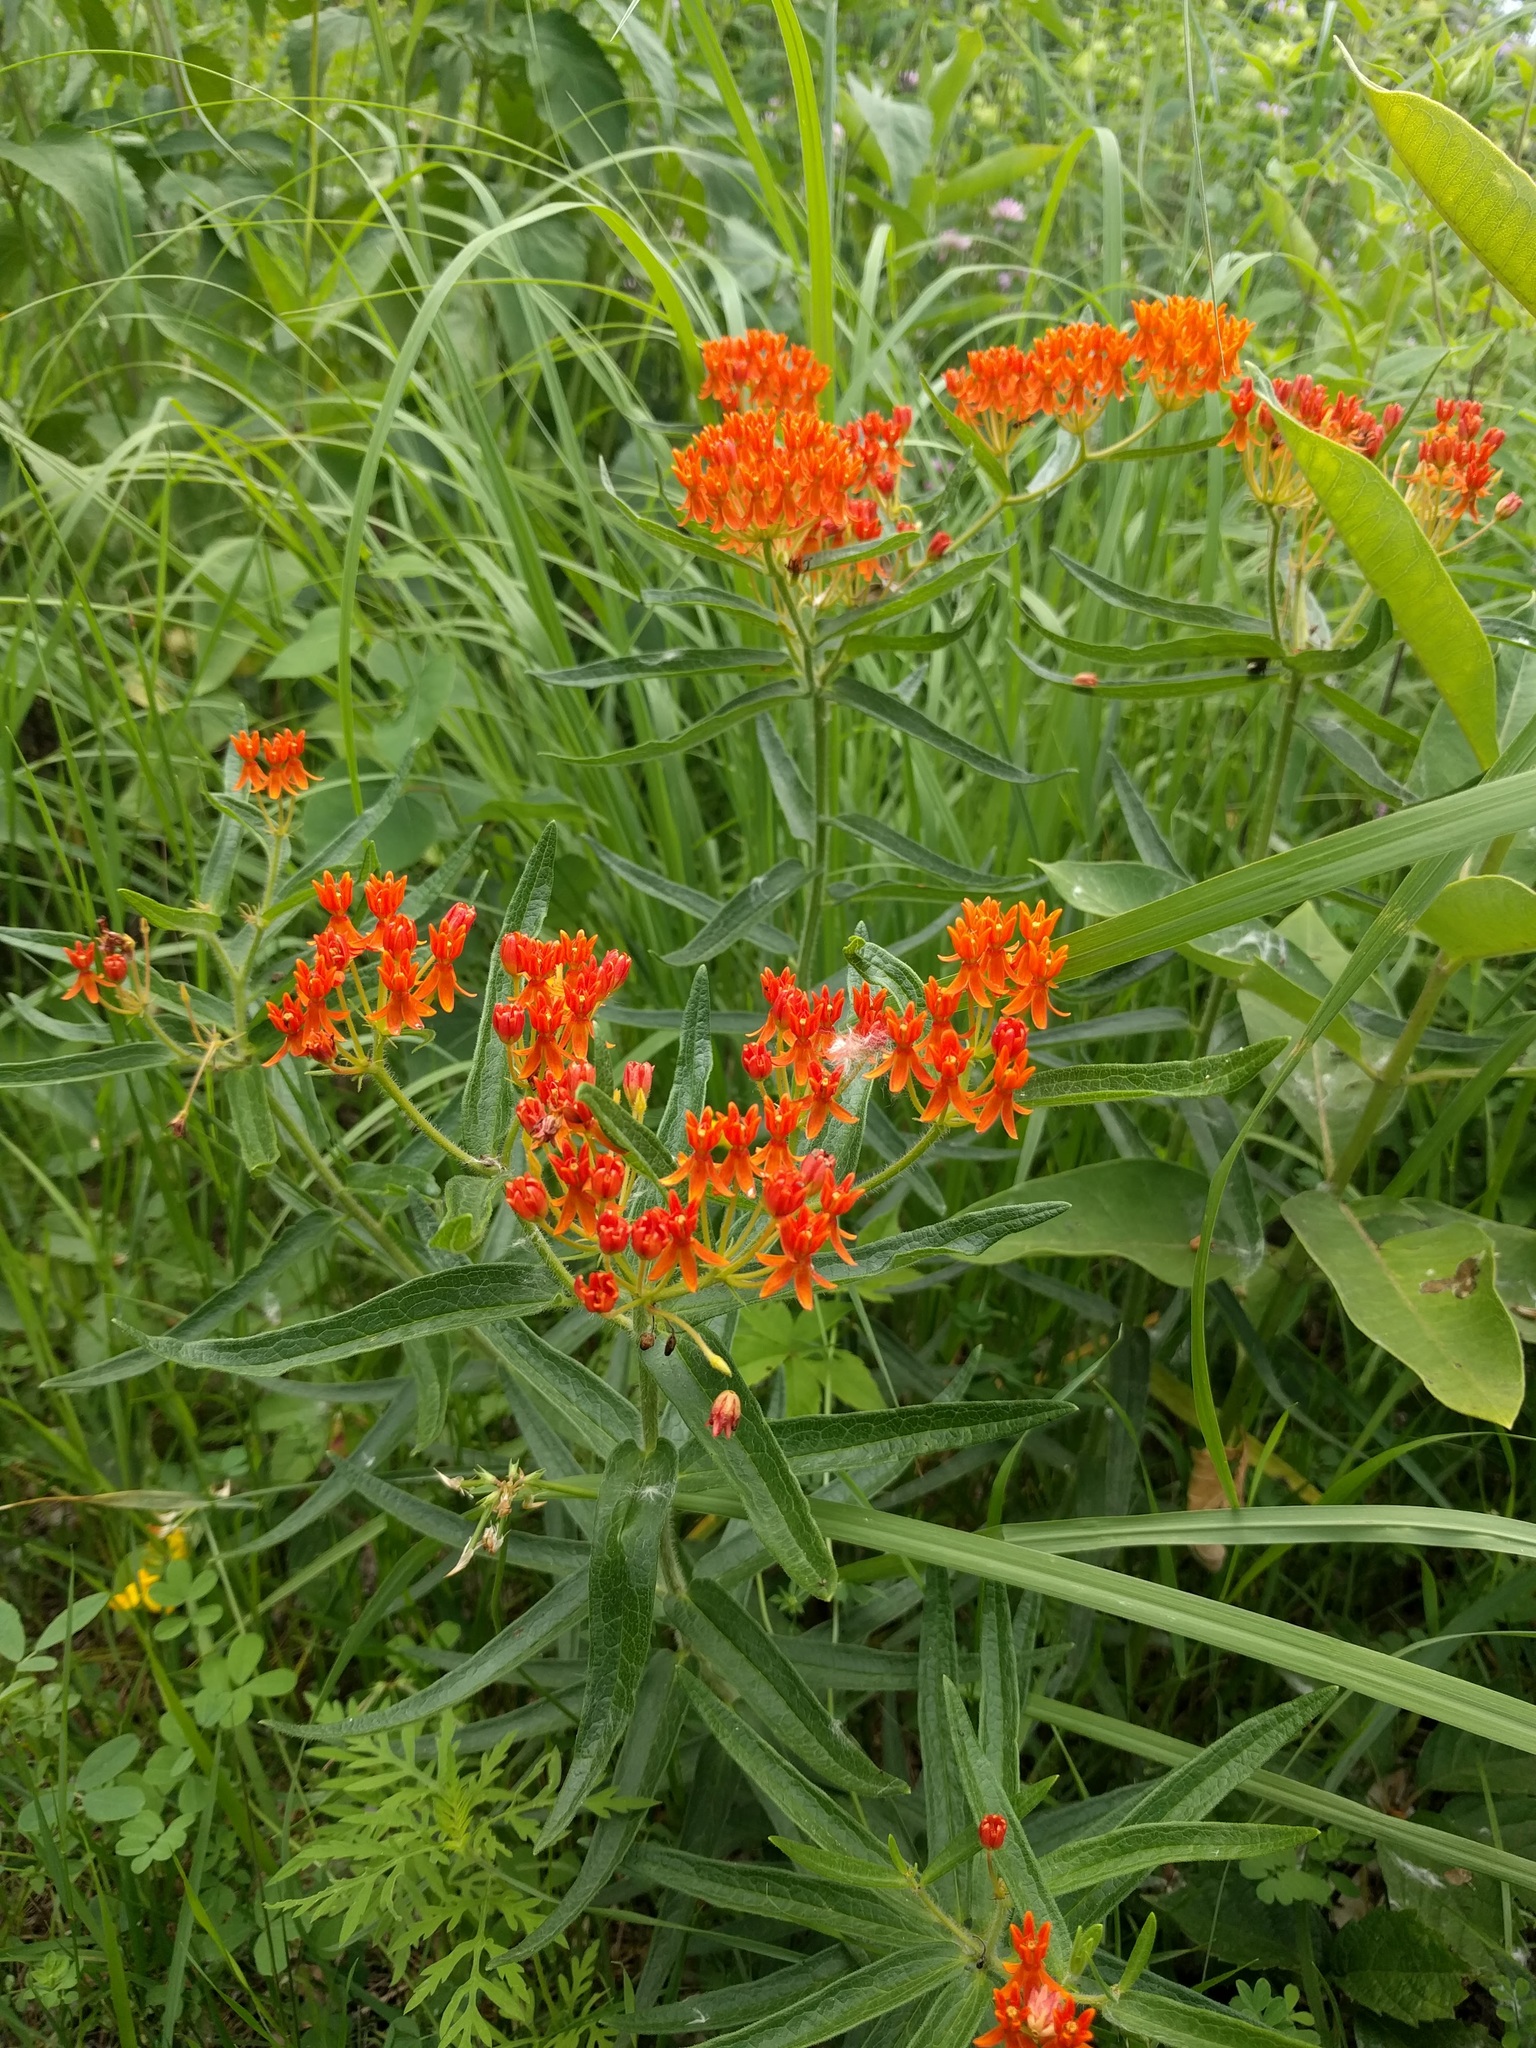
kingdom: Plantae
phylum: Tracheophyta
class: Magnoliopsida
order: Gentianales
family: Apocynaceae
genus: Asclepias
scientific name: Asclepias tuberosa
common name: Butterfly milkweed
